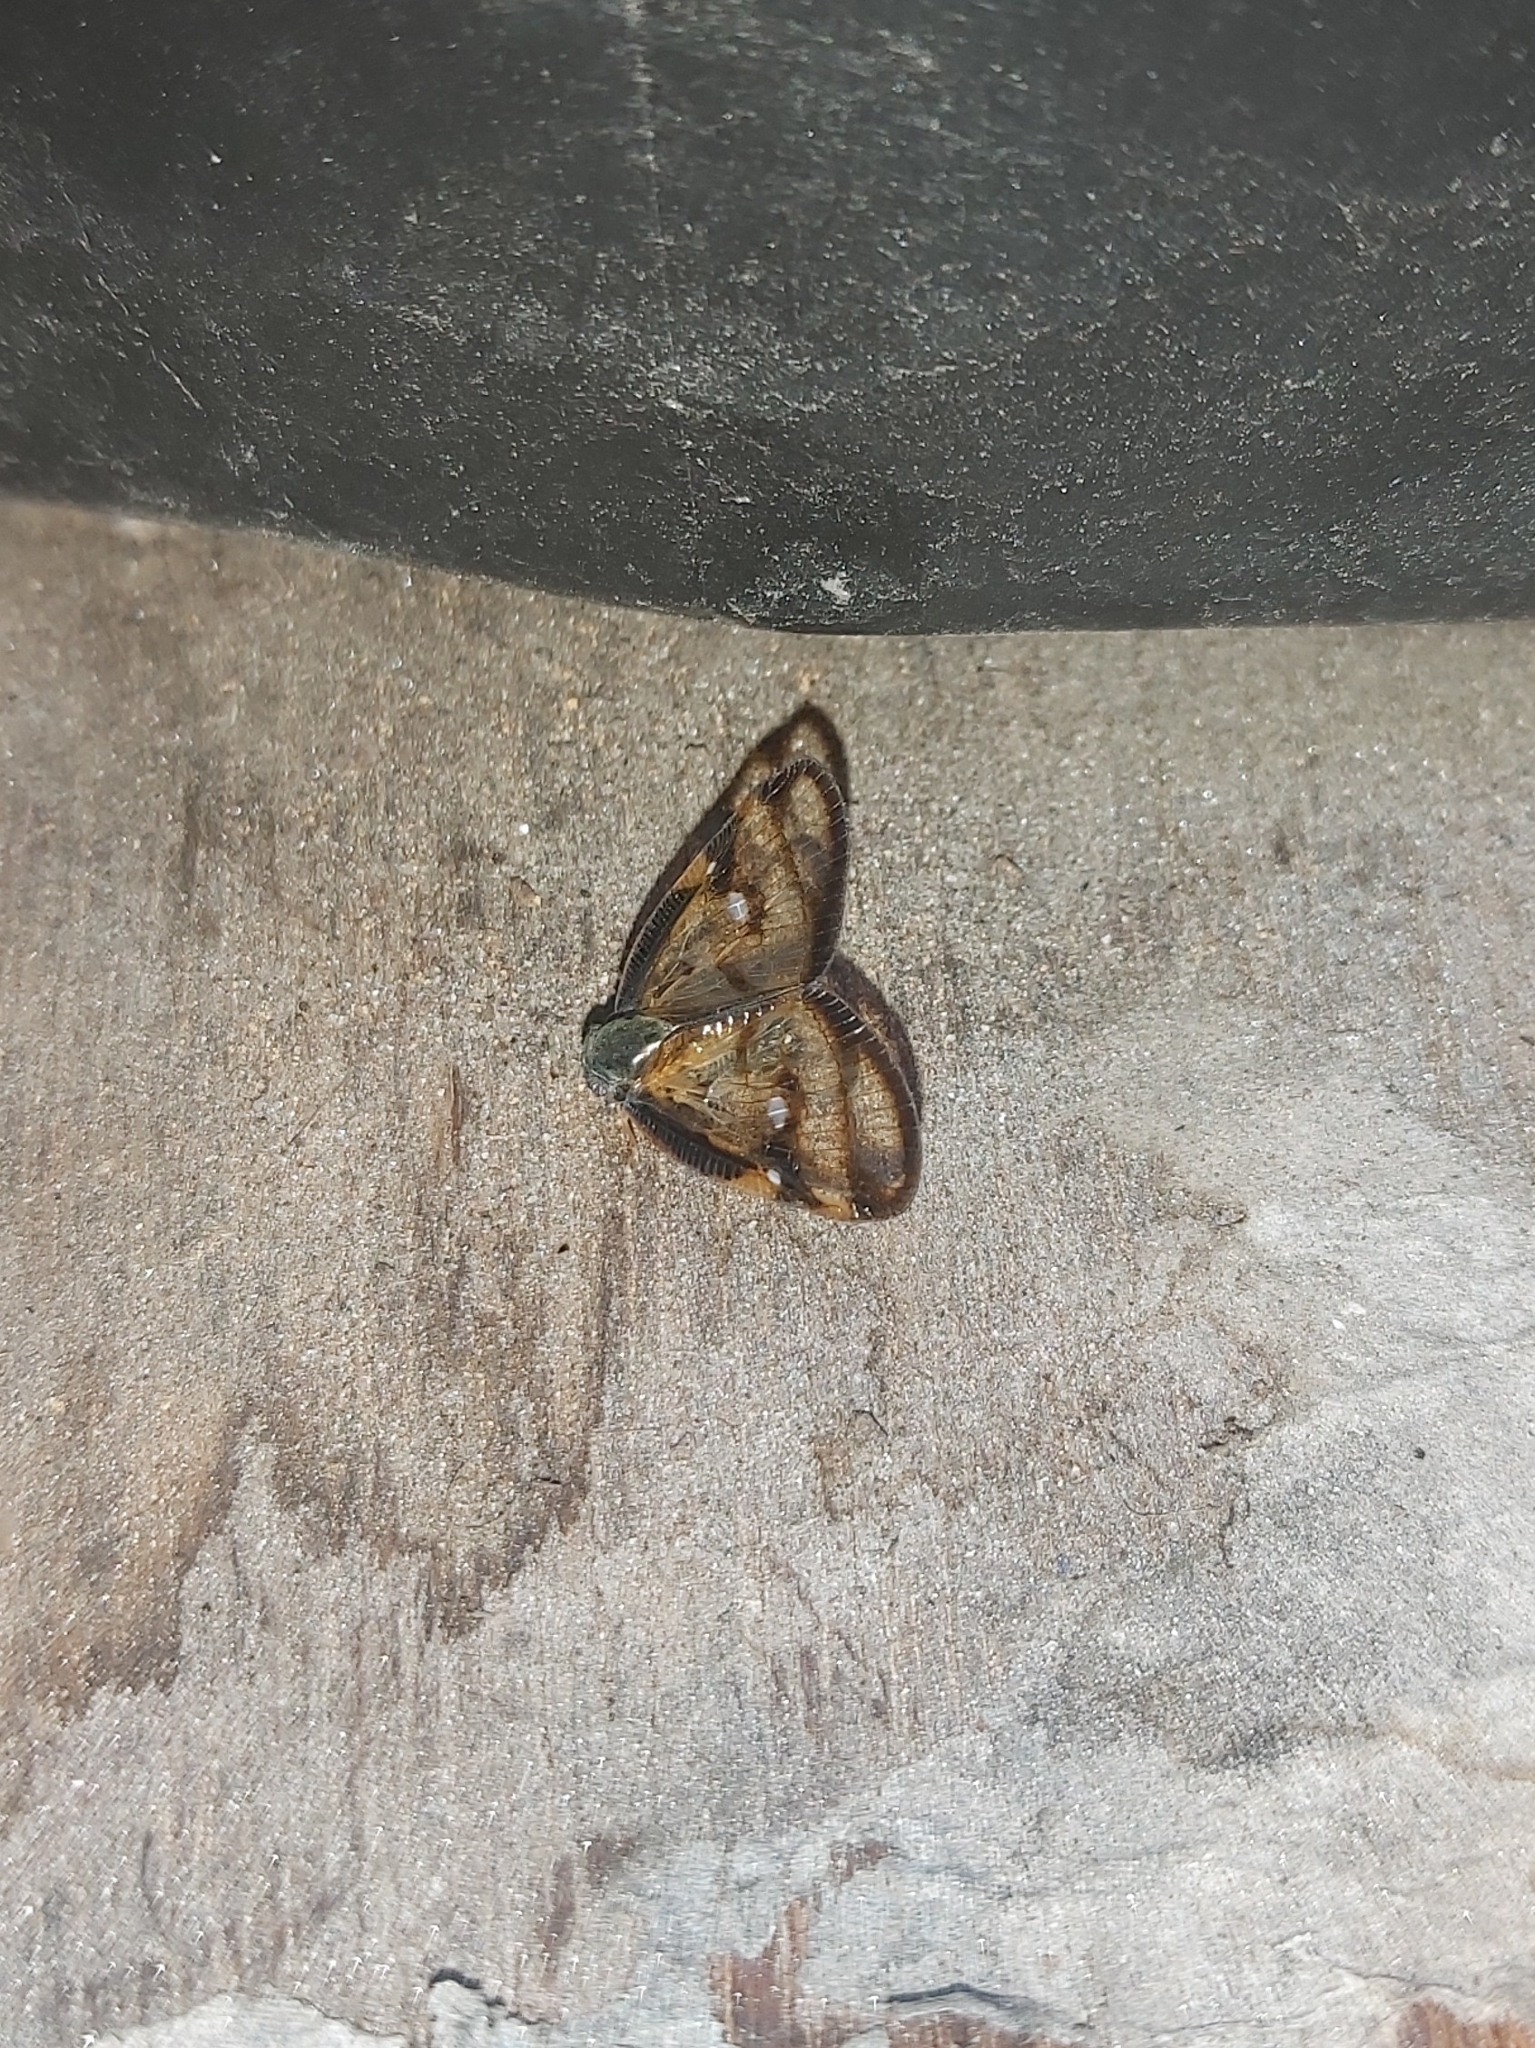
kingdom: Animalia
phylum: Arthropoda
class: Insecta
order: Hemiptera
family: Ricaniidae
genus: Euricania
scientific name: Euricania ocella
